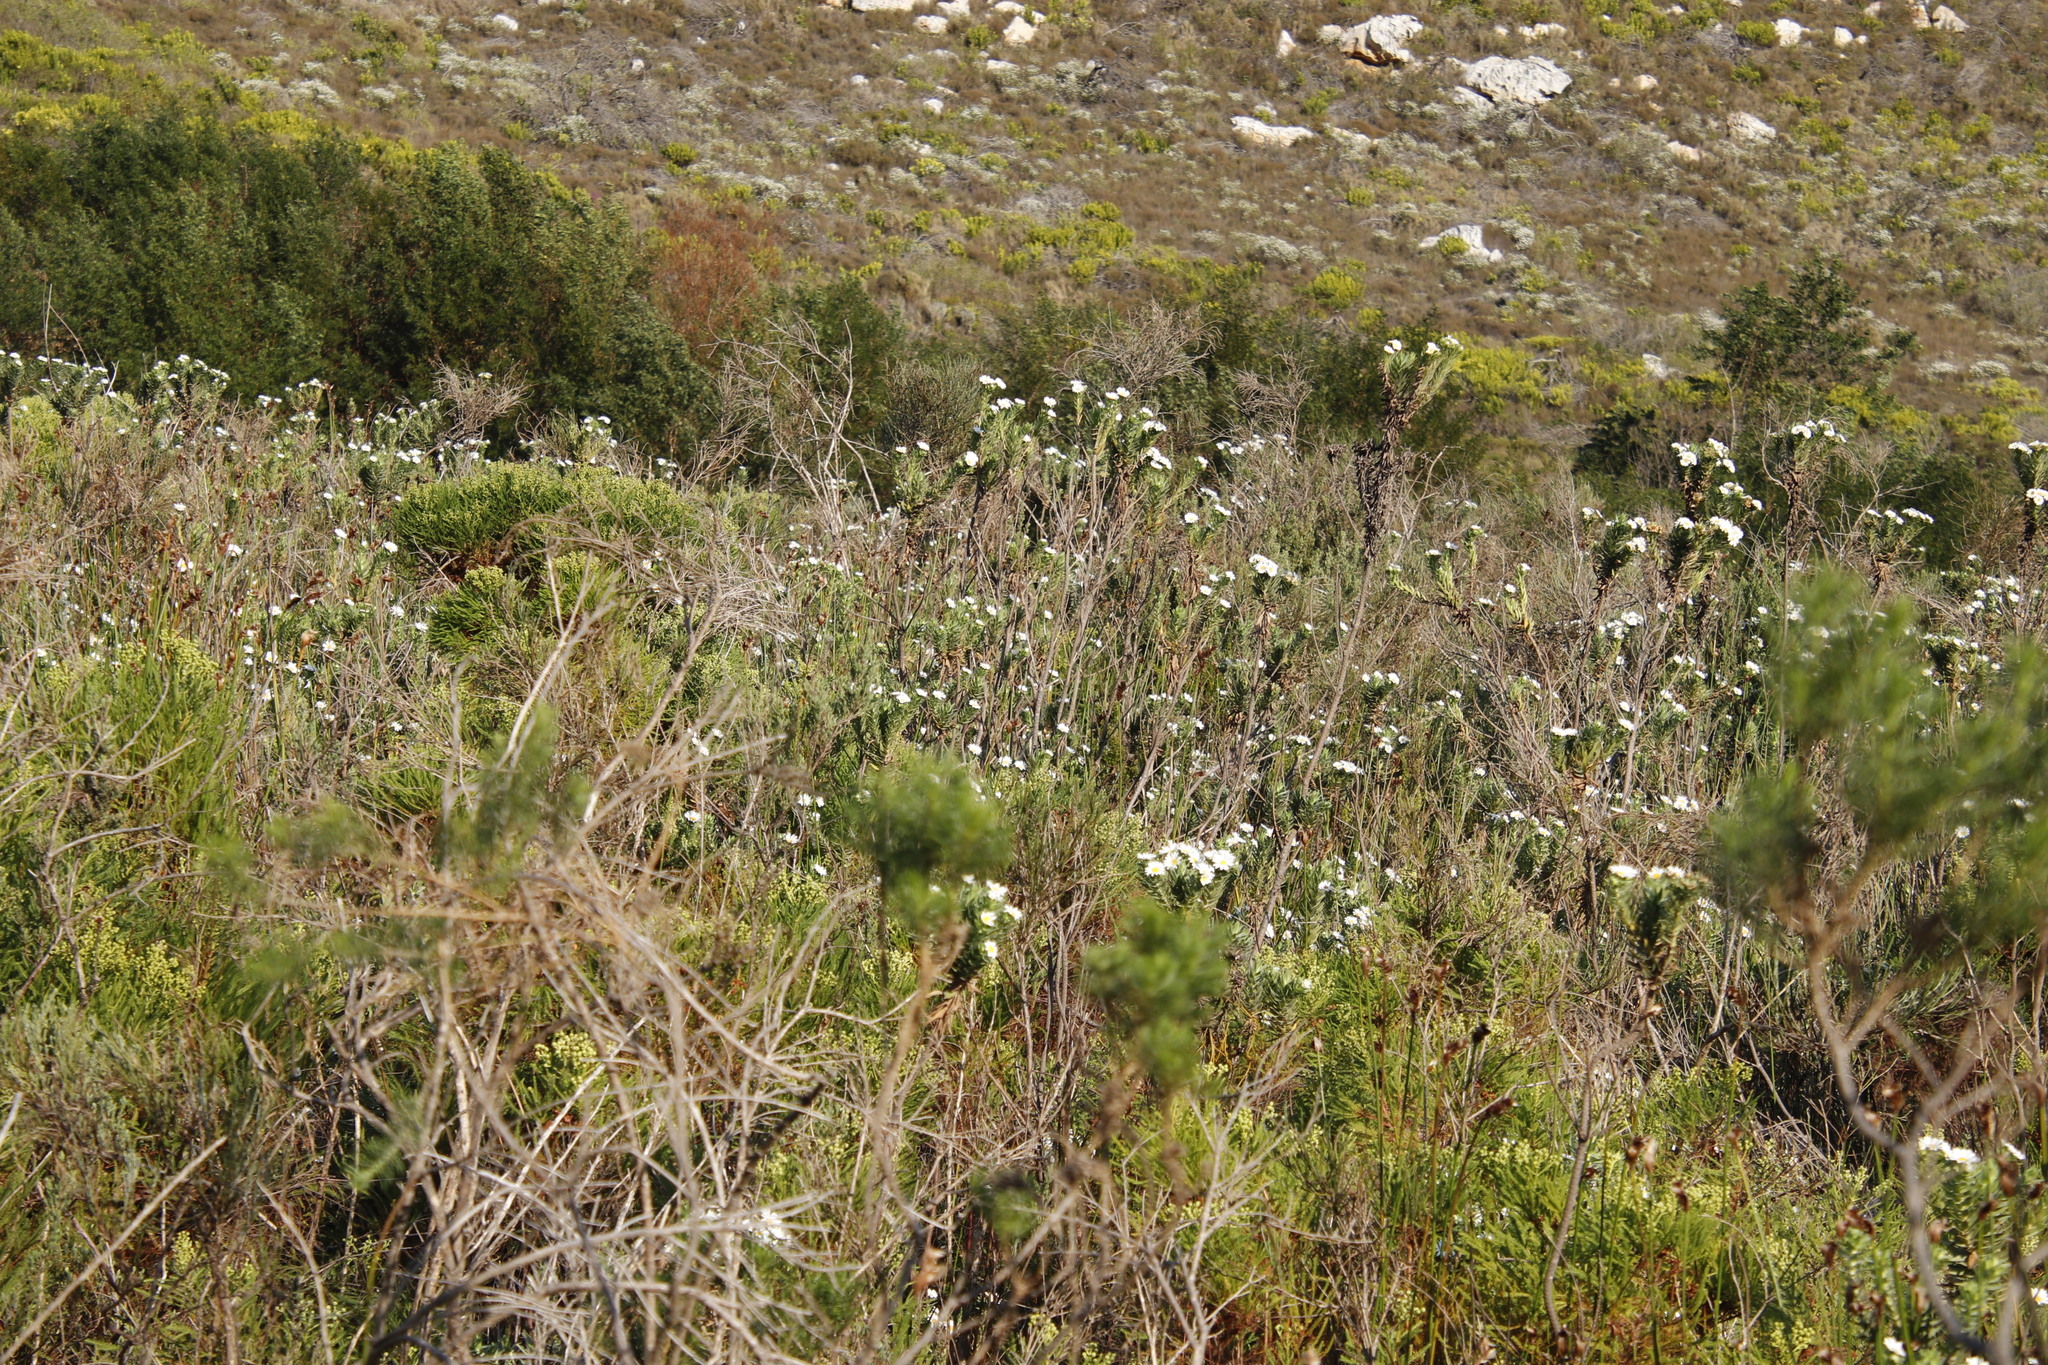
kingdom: Plantae
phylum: Tracheophyta
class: Magnoliopsida
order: Asterales
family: Asteraceae
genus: Osmitopsis
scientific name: Osmitopsis asteriscoides
